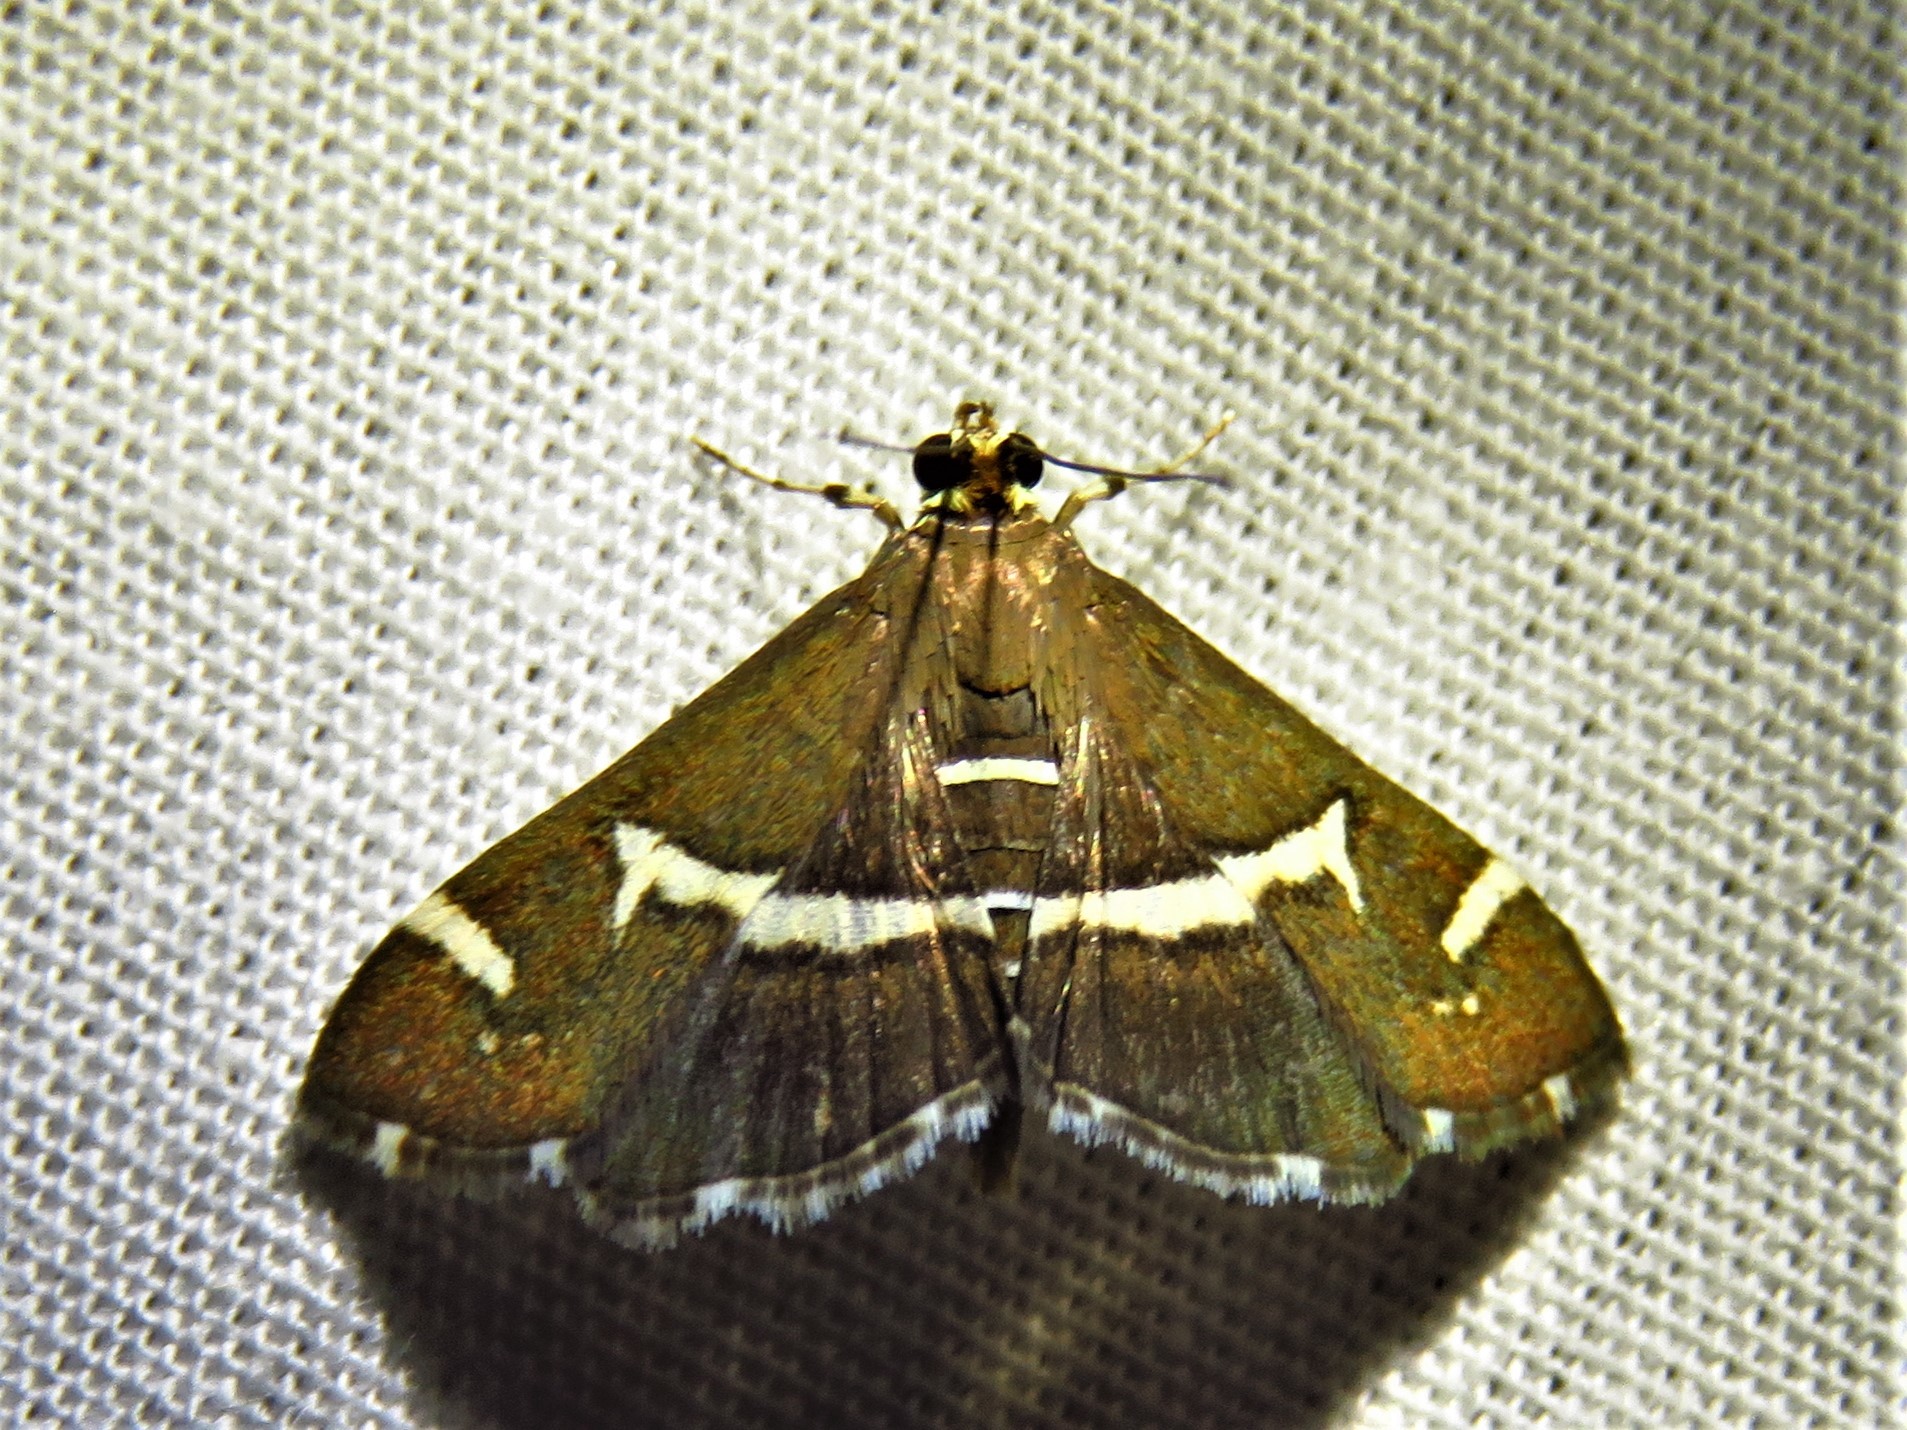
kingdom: Animalia
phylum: Arthropoda
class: Insecta
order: Lepidoptera
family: Crambidae
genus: Spoladea
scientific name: Spoladea recurvalis
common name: Beet webworm moth
